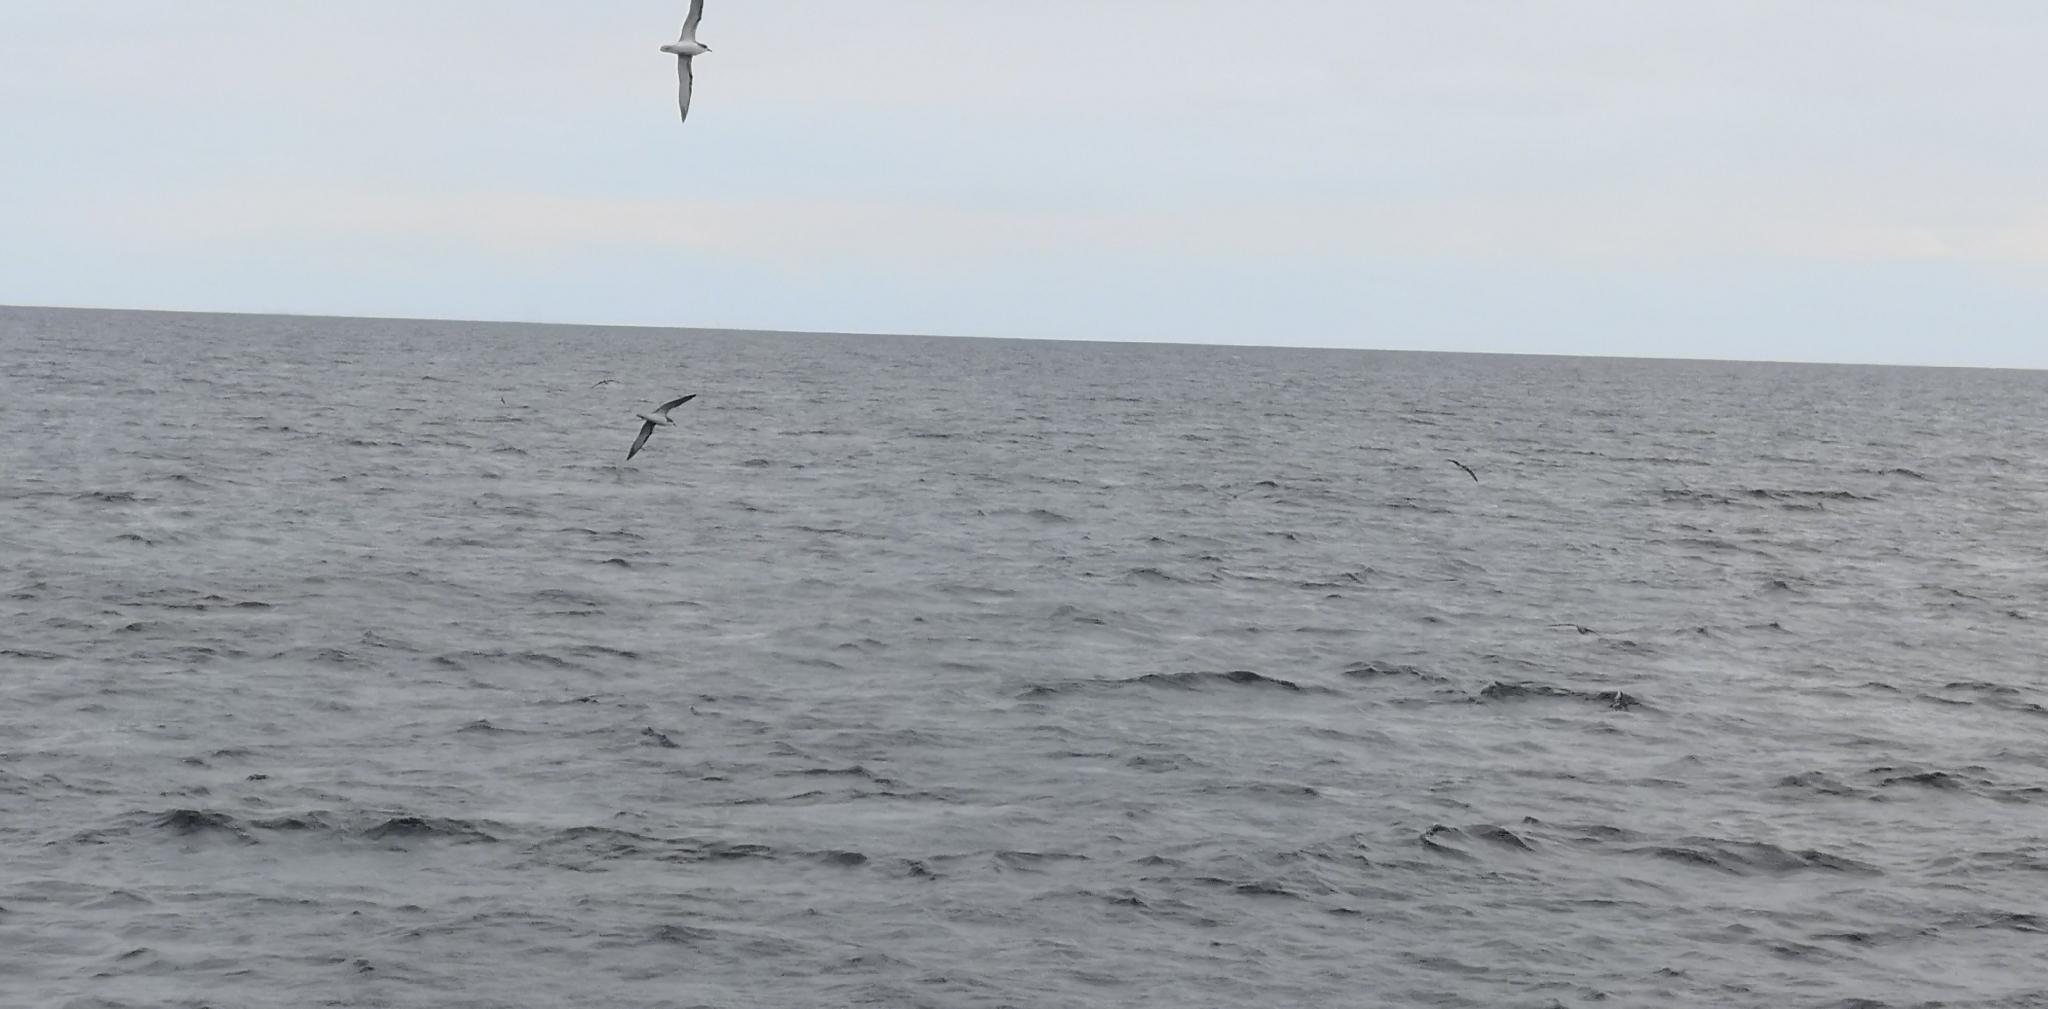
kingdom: Animalia
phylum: Chordata
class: Aves
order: Procellariiformes
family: Procellariidae
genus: Pterodroma
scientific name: Pterodroma cookii
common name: Cook's petrel
